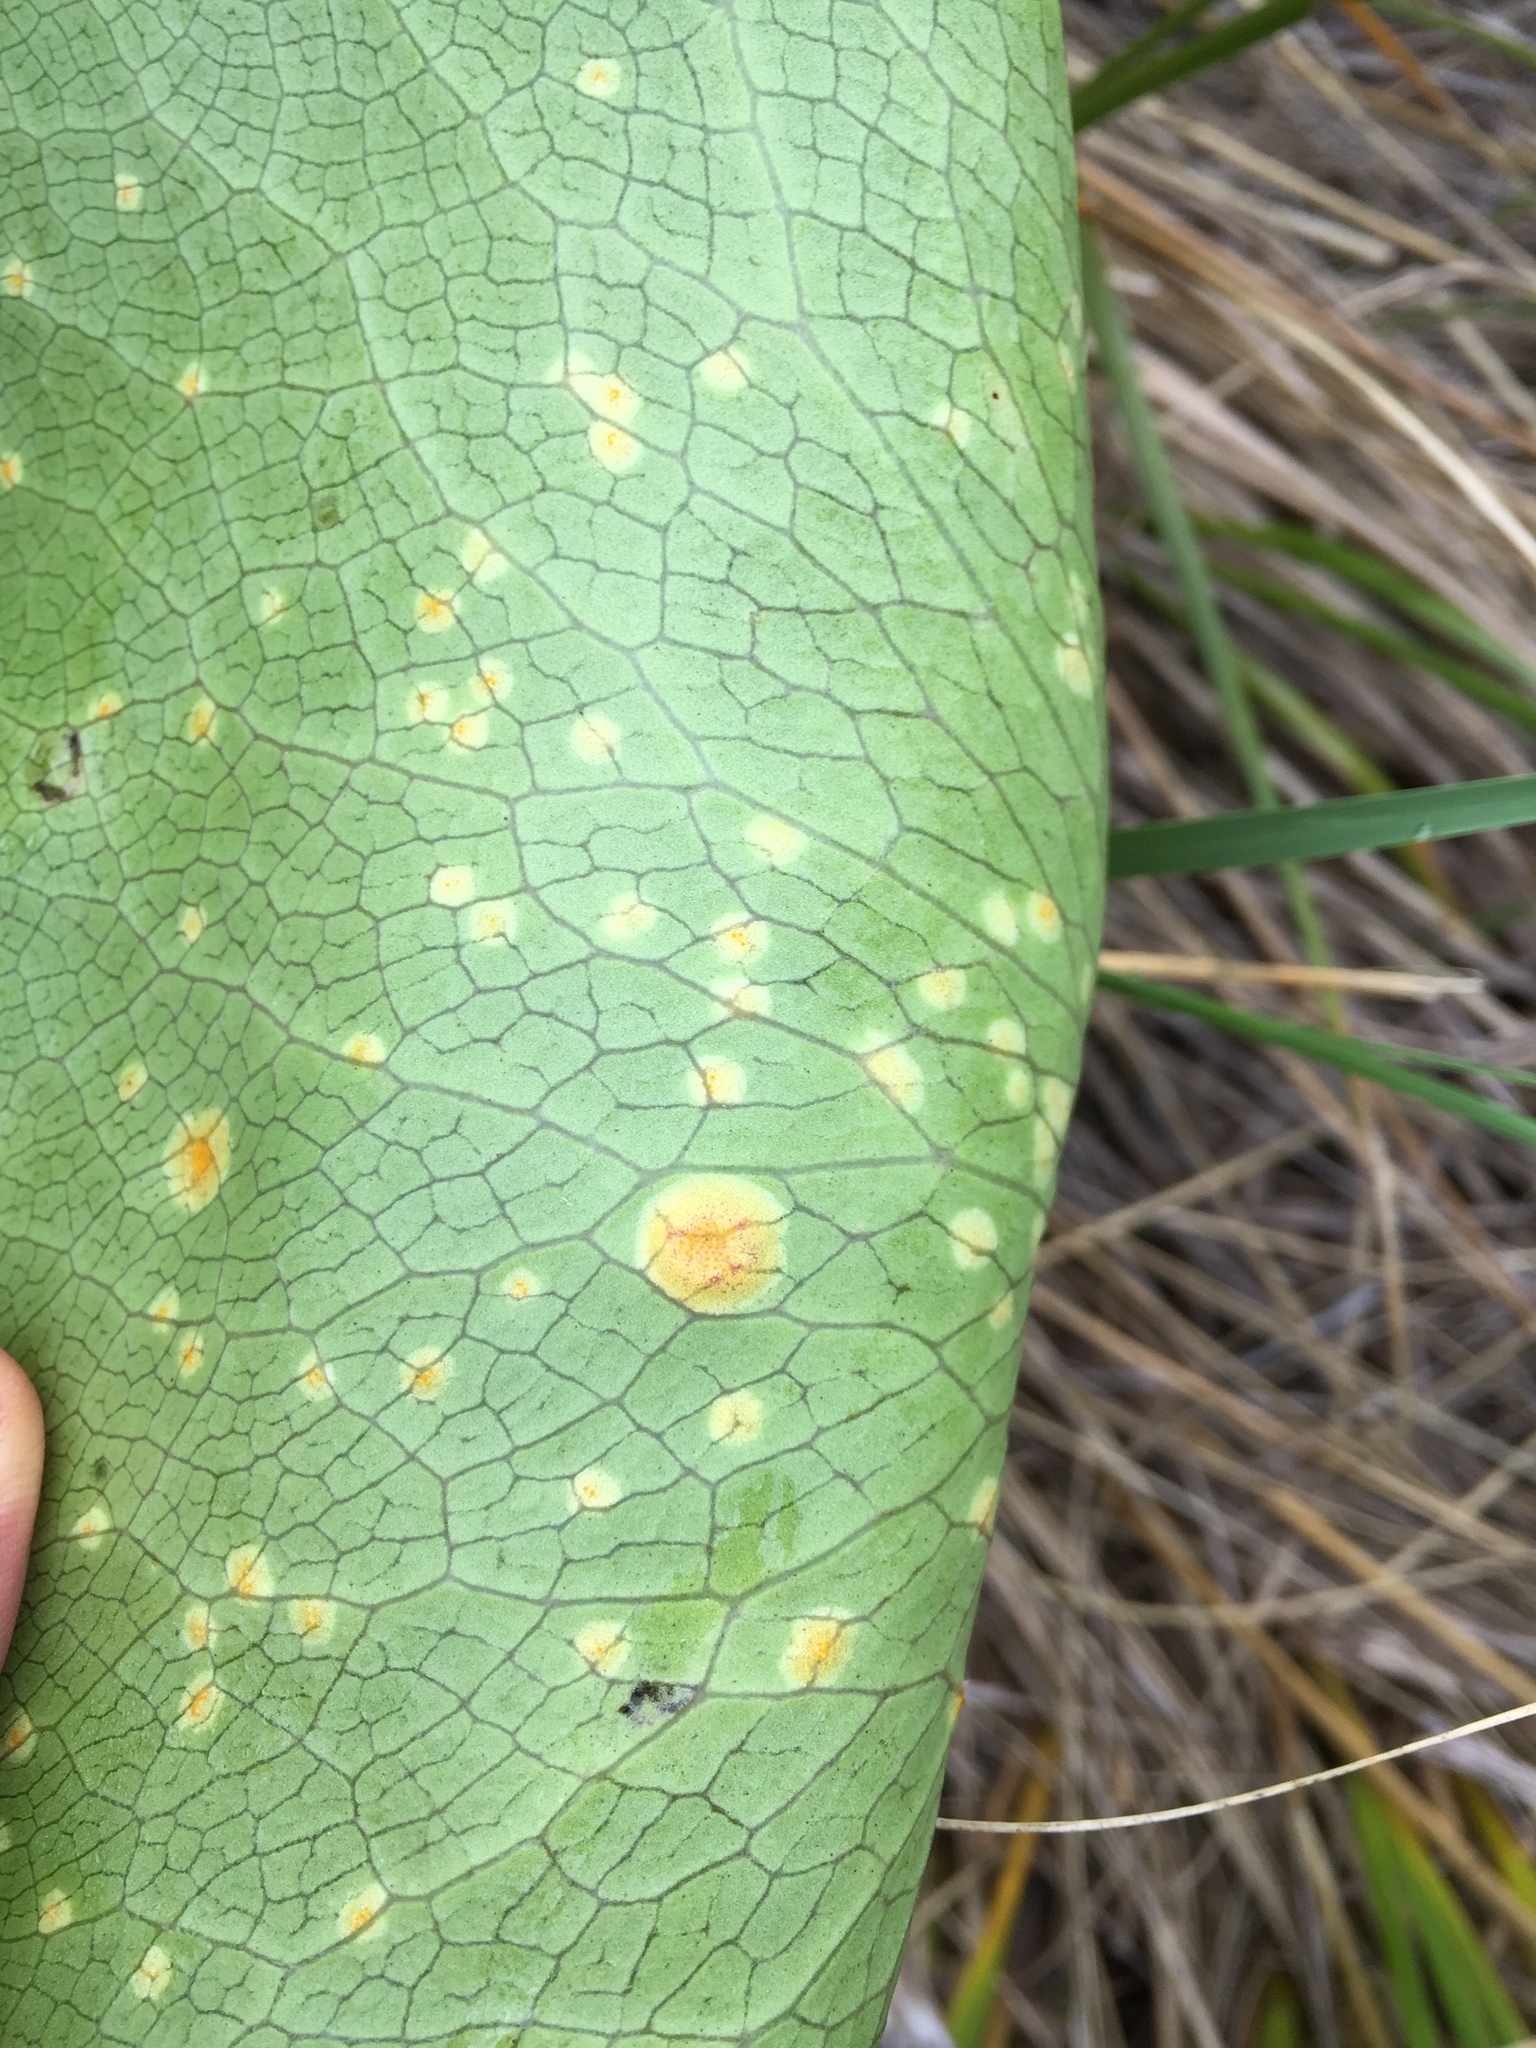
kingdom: Fungi
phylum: Basidiomycota
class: Pucciniomycetes
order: Pucciniales
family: Pucciniaceae
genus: Aecidium
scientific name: Aecidium ranunculi-lyallii
